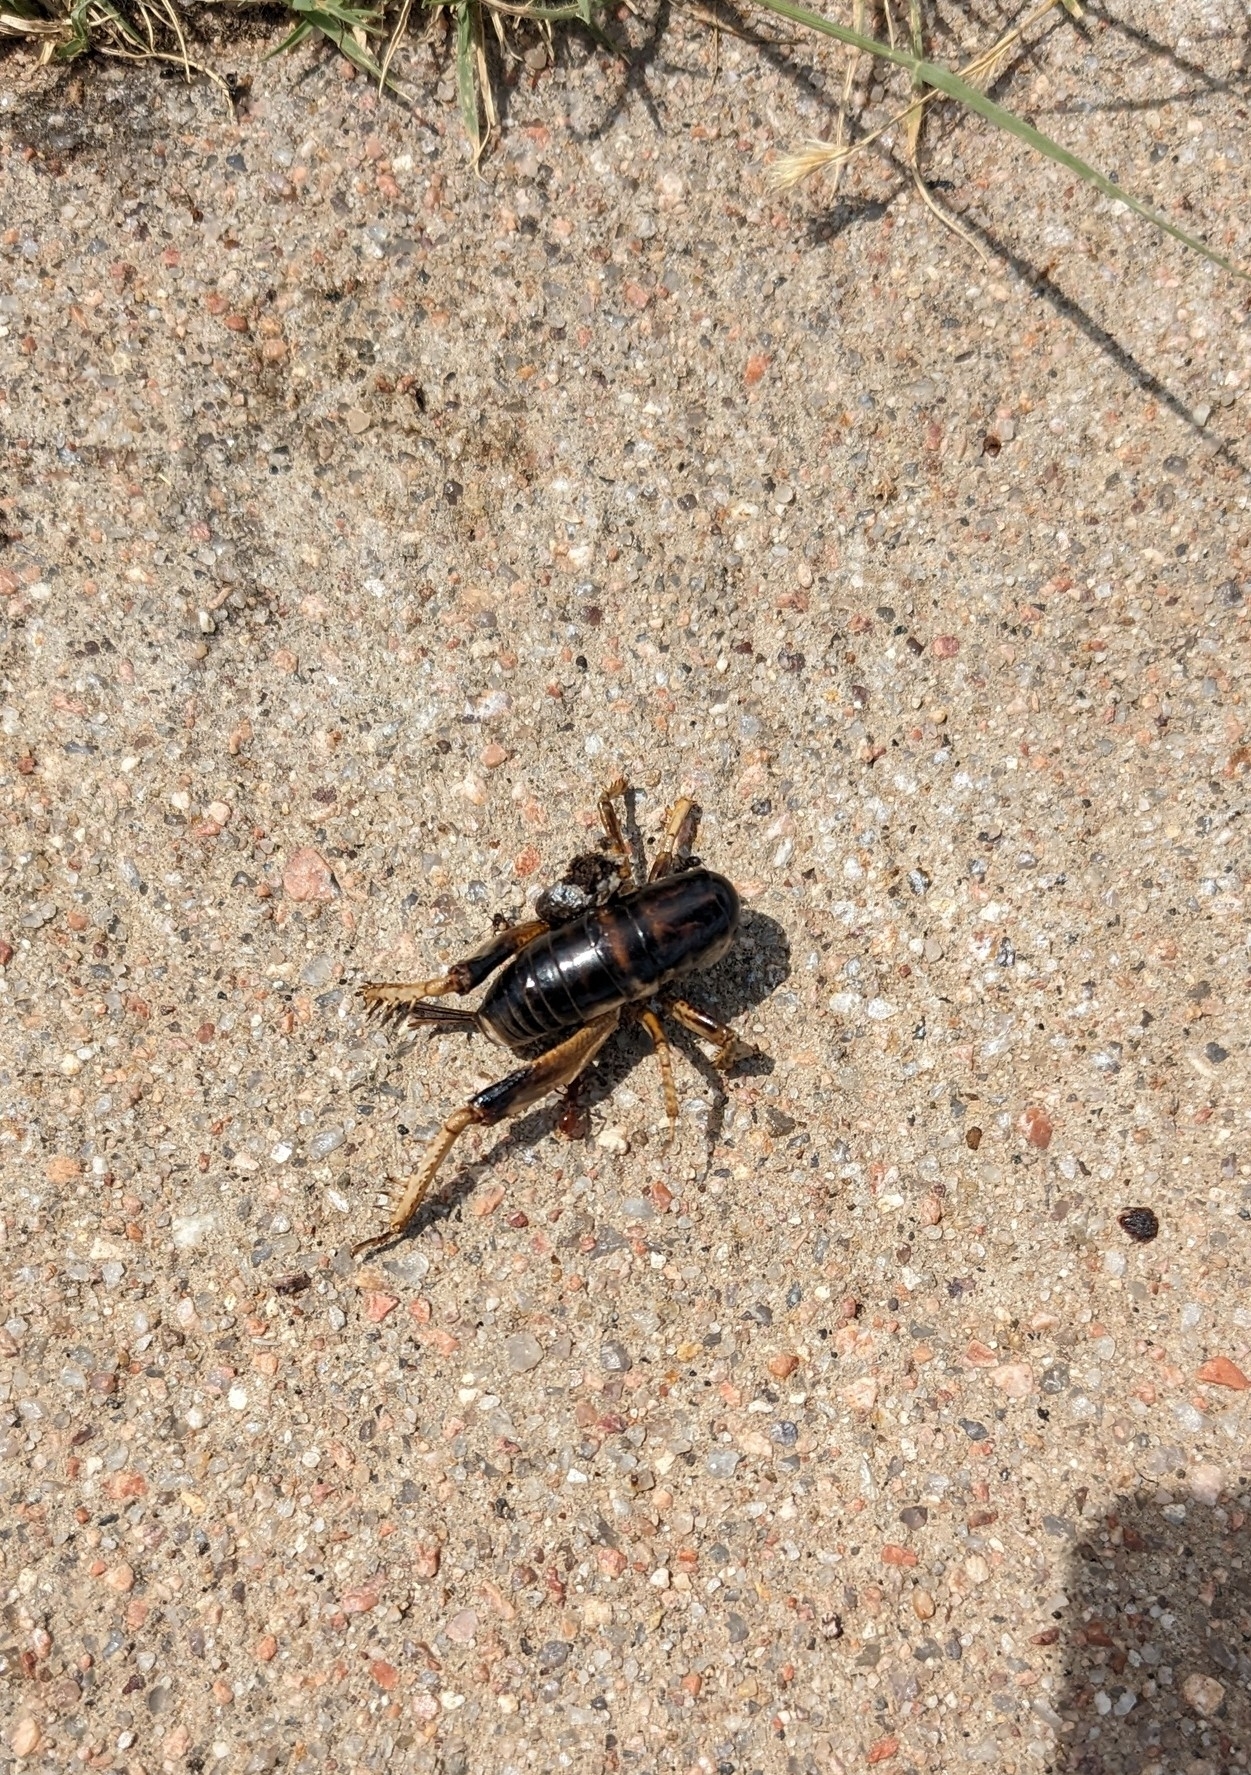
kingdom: Animalia
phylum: Arthropoda
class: Insecta
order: Orthoptera
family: Rhaphidophoridae
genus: Daihinia
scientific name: Daihinia brevipes
